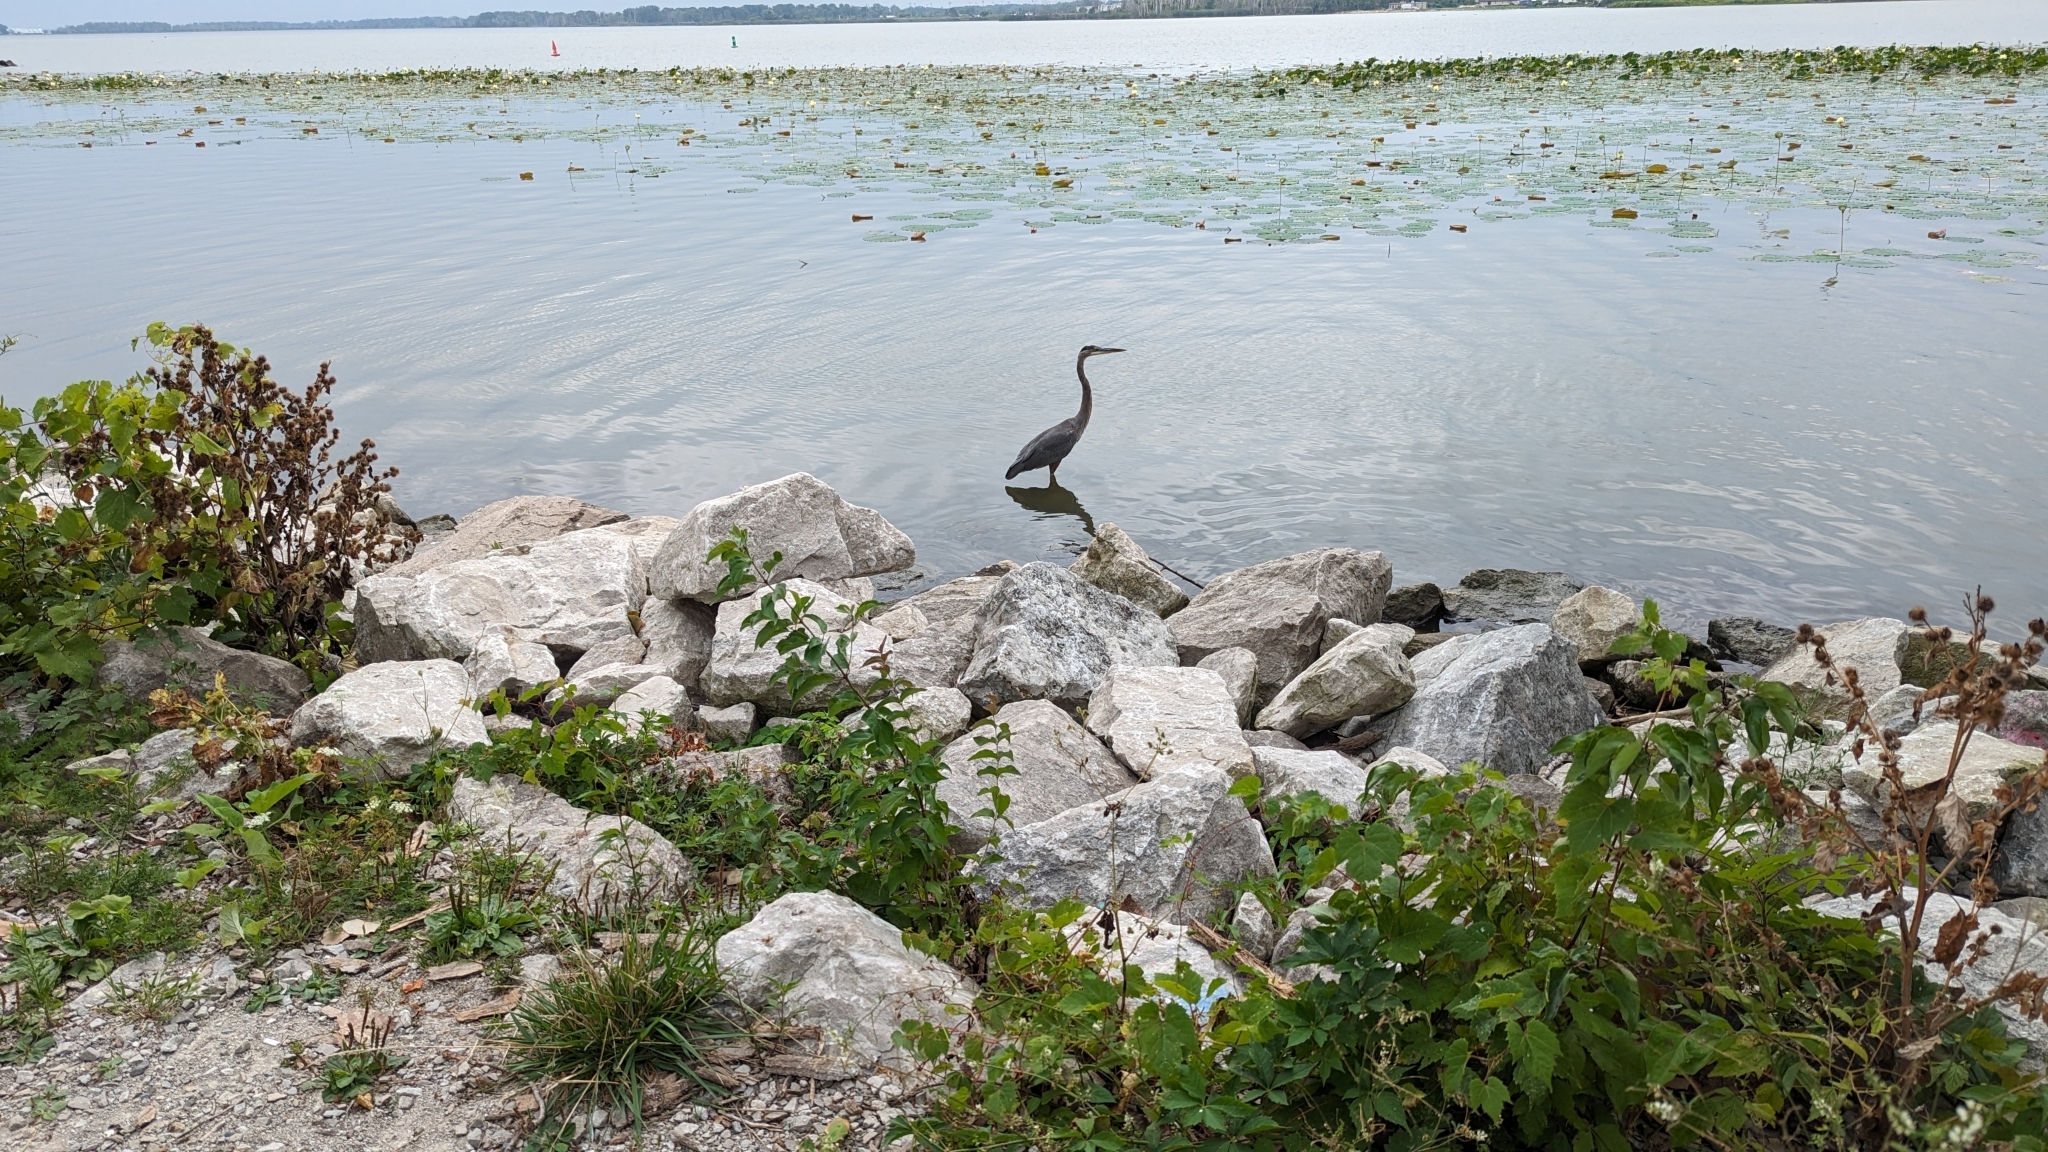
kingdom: Animalia
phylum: Chordata
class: Aves
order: Pelecaniformes
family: Ardeidae
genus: Ardea
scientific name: Ardea herodias
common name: Great blue heron
